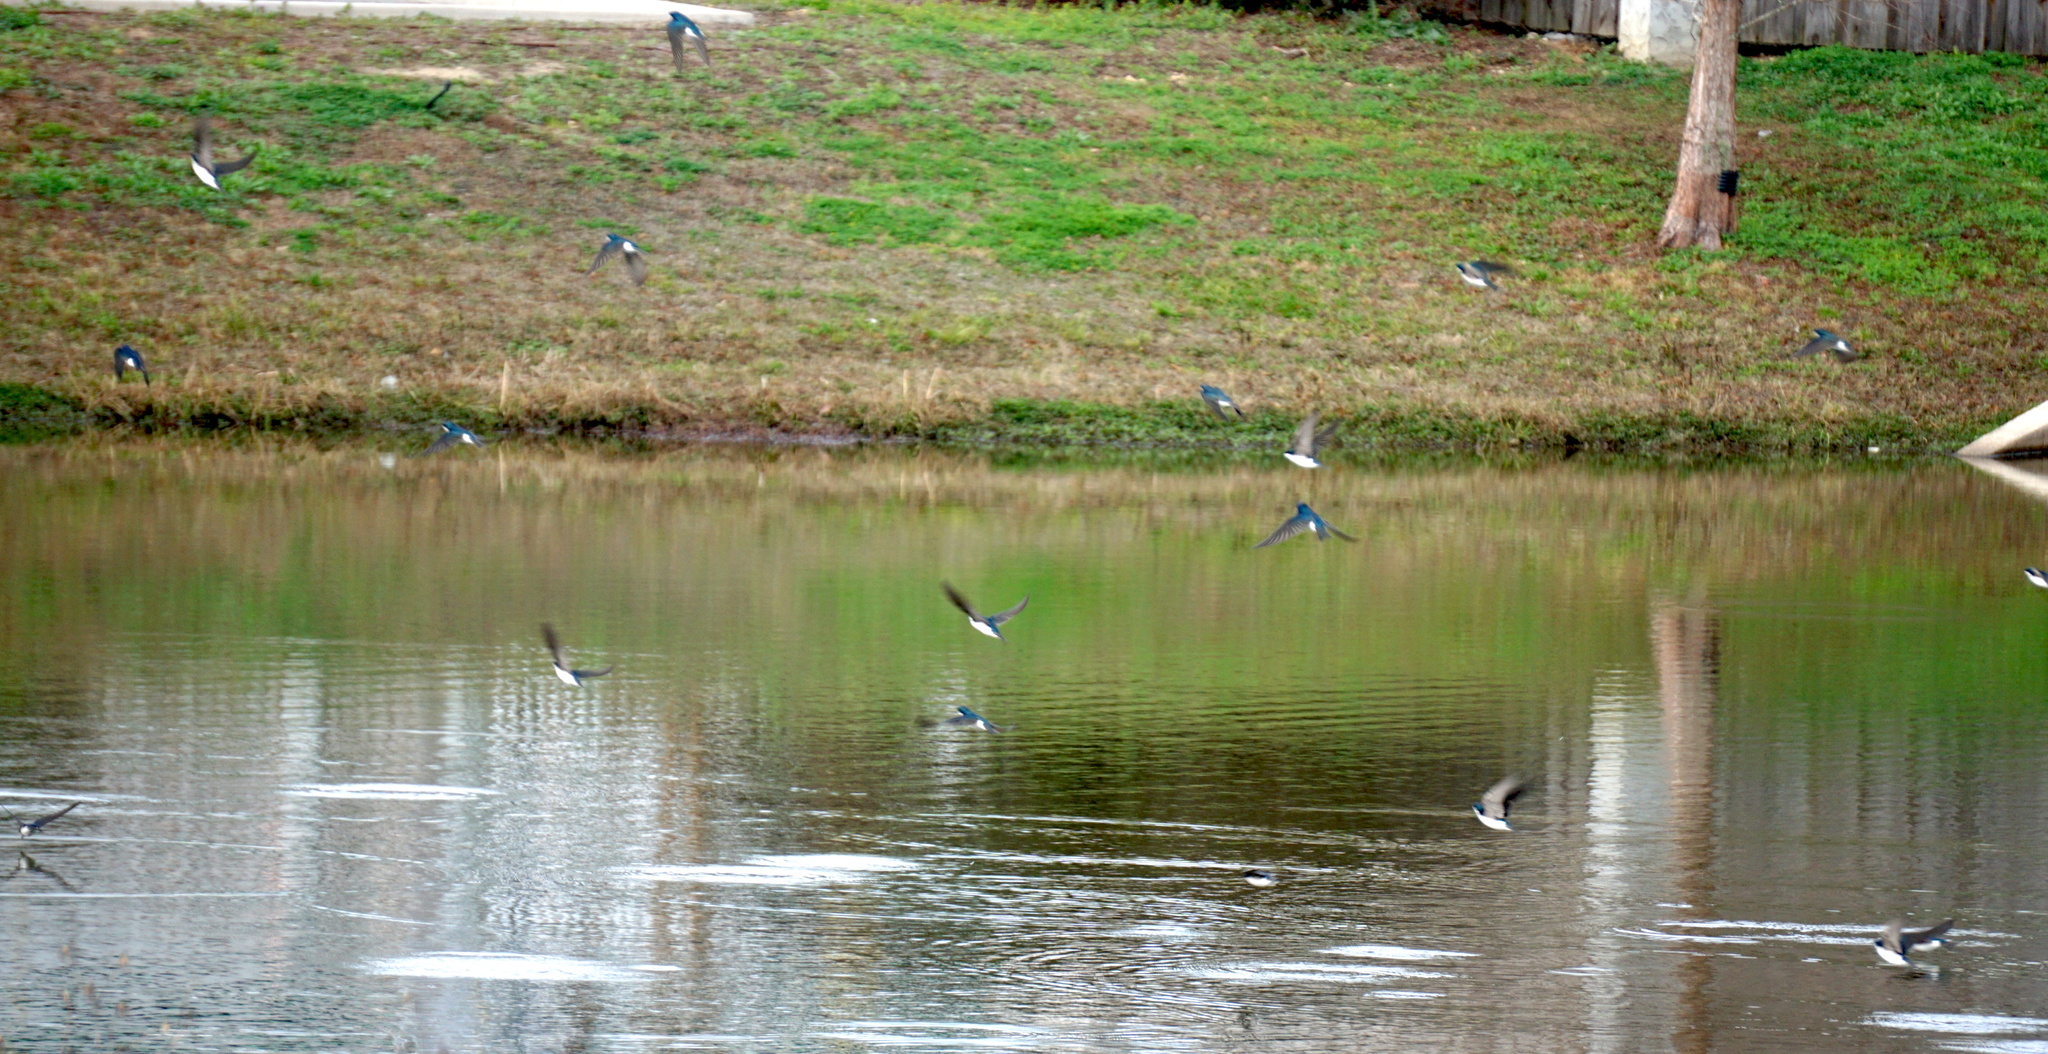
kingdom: Animalia
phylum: Chordata
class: Aves
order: Passeriformes
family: Hirundinidae
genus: Tachycineta
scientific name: Tachycineta bicolor
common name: Tree swallow
